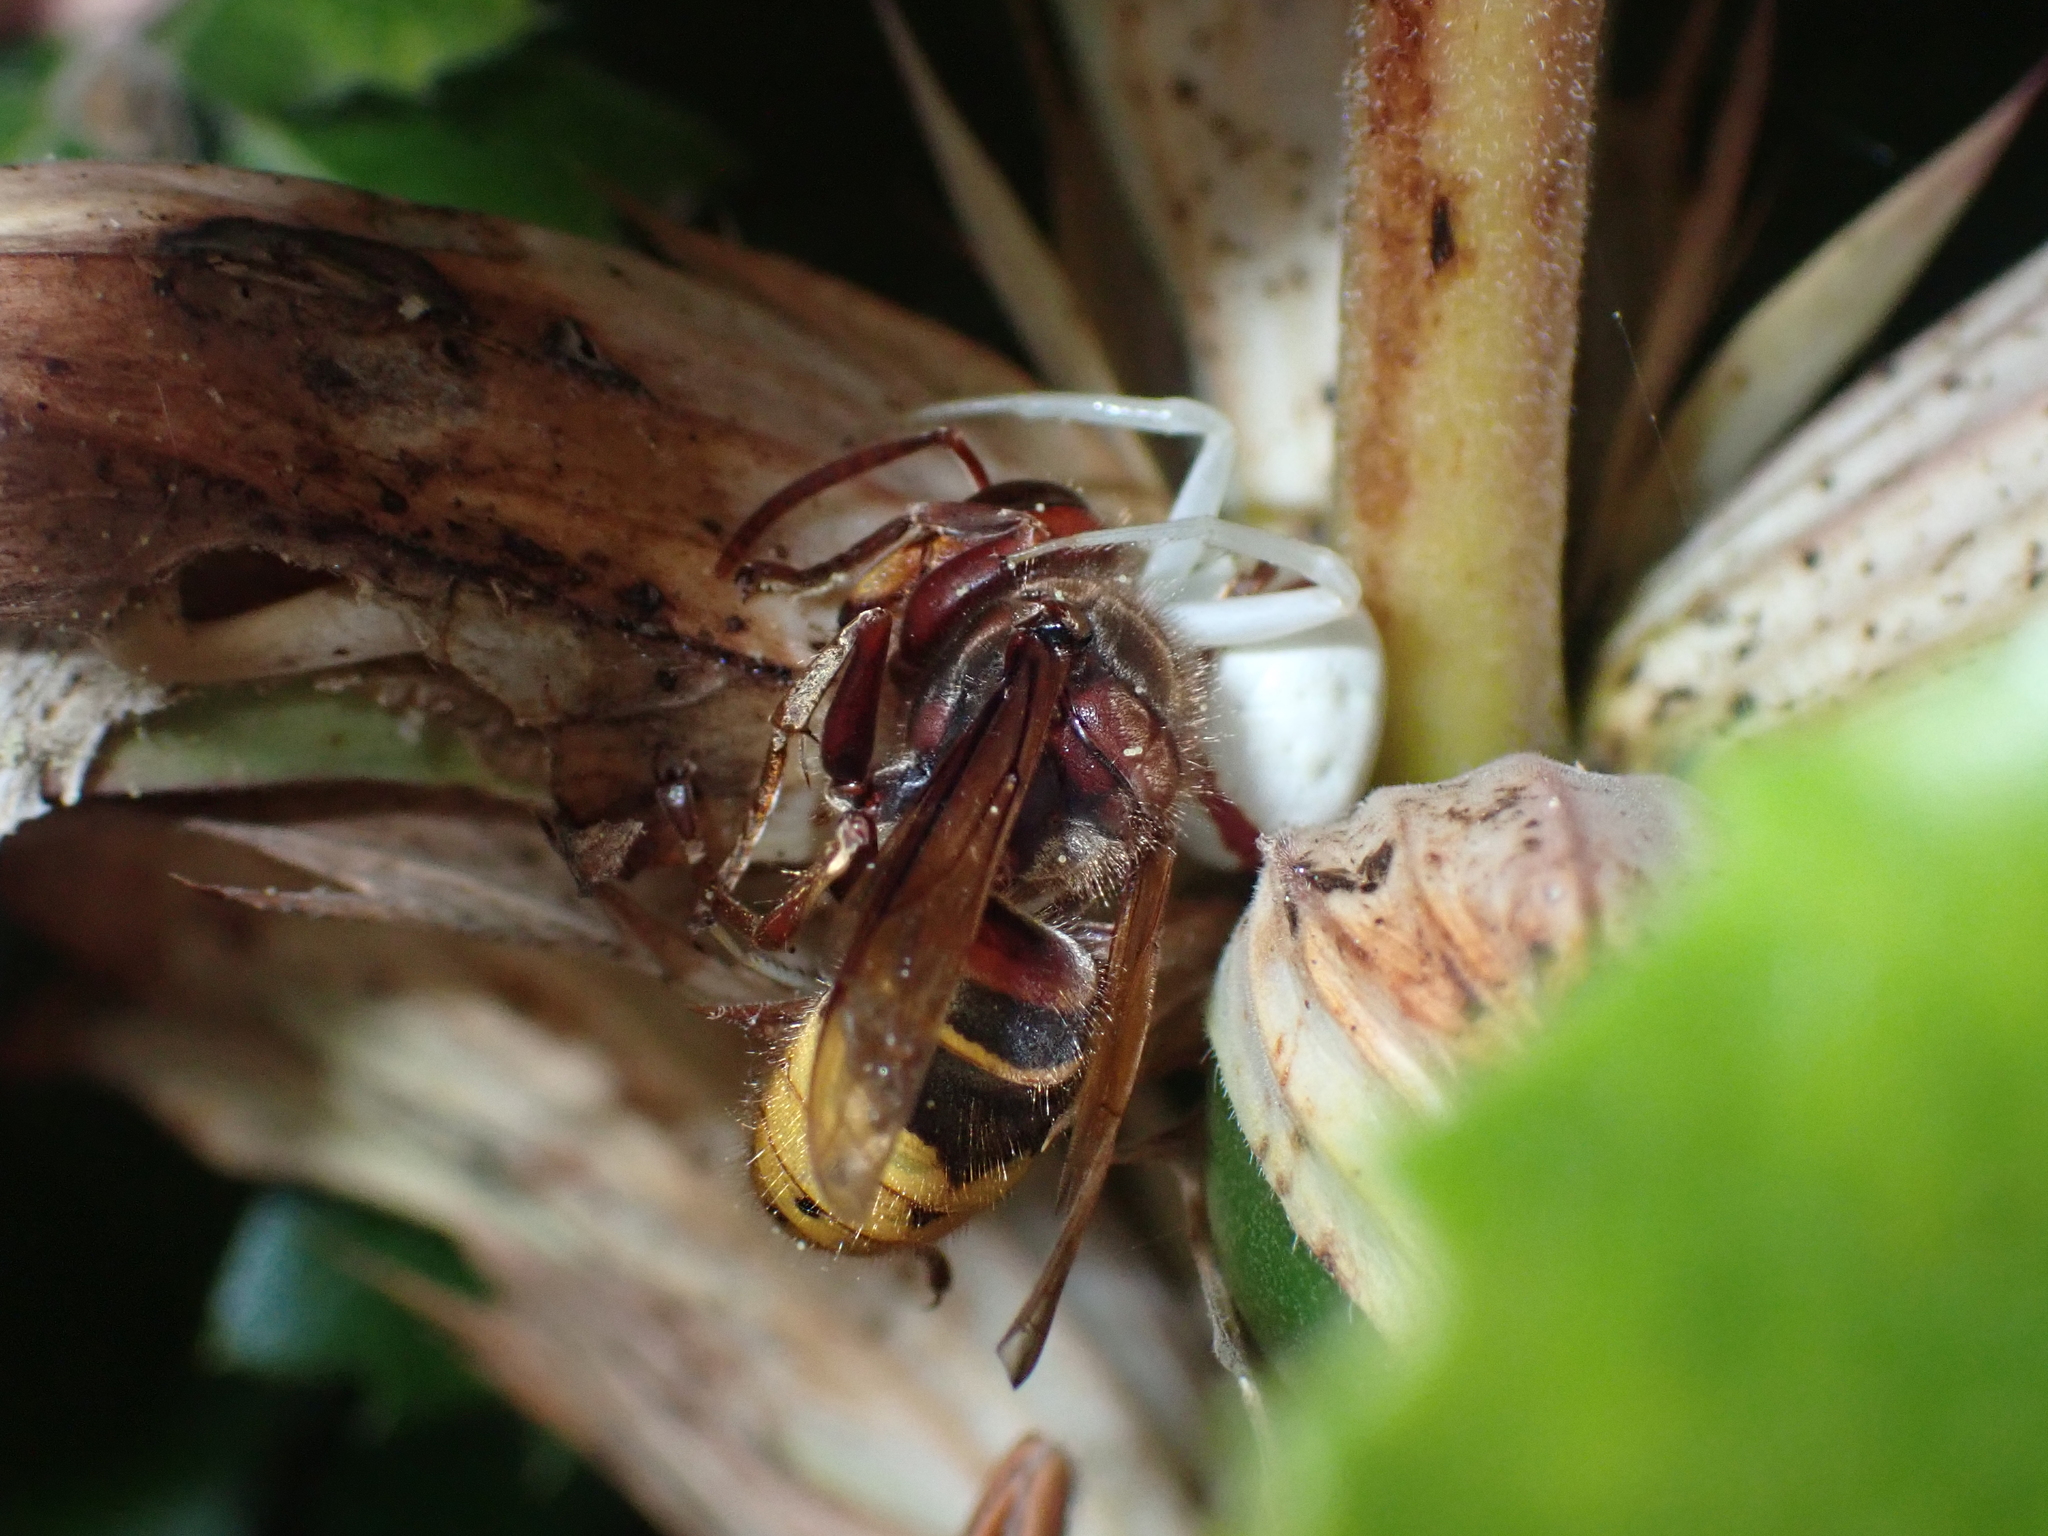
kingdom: Animalia
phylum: Arthropoda
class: Insecta
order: Hymenoptera
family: Vespidae
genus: Vespa
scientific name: Vespa crabro
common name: Hornet
